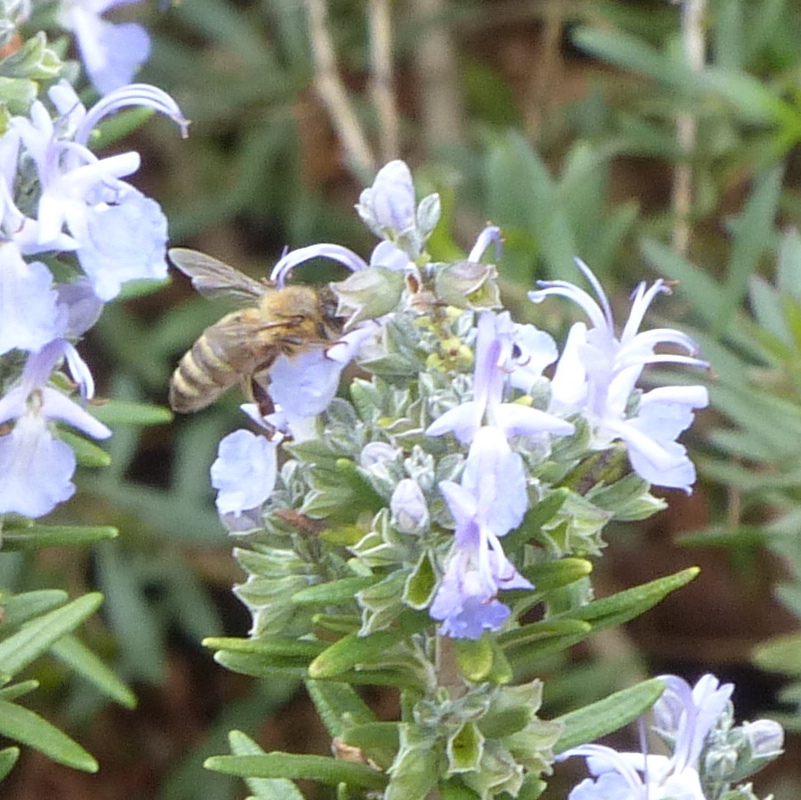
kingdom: Animalia
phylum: Arthropoda
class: Insecta
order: Hymenoptera
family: Apidae
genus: Apis
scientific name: Apis mellifera
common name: Honey bee
